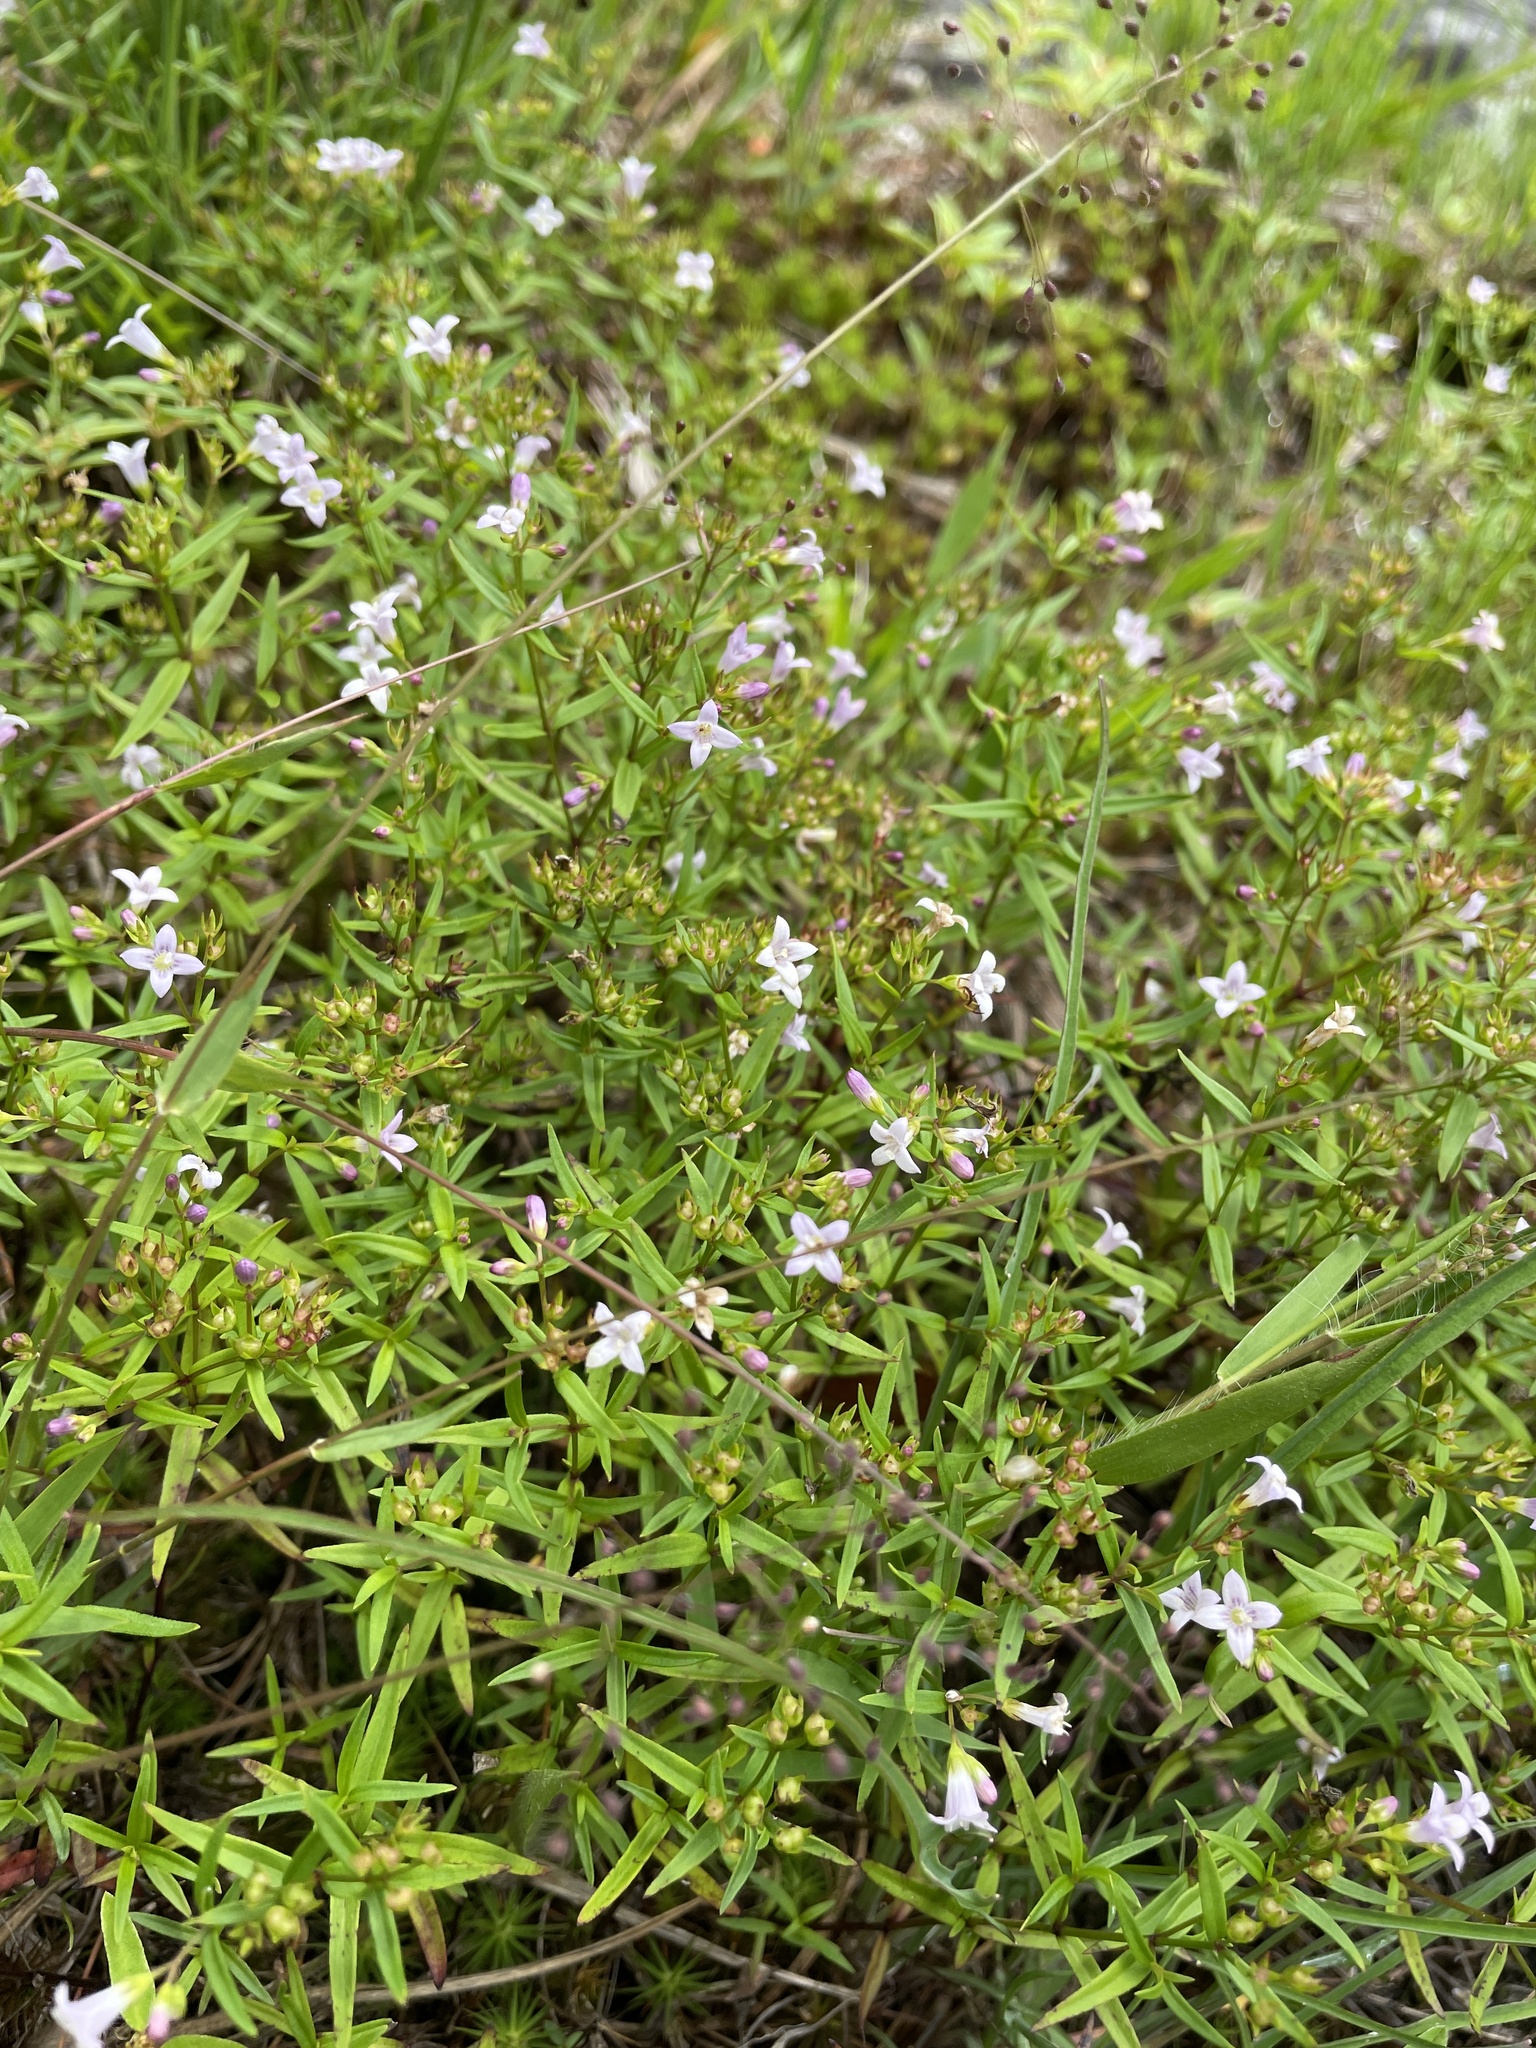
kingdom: Plantae
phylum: Tracheophyta
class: Magnoliopsida
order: Gentianales
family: Rubiaceae
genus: Houstonia
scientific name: Houstonia longifolia
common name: Long-leaved bluets
